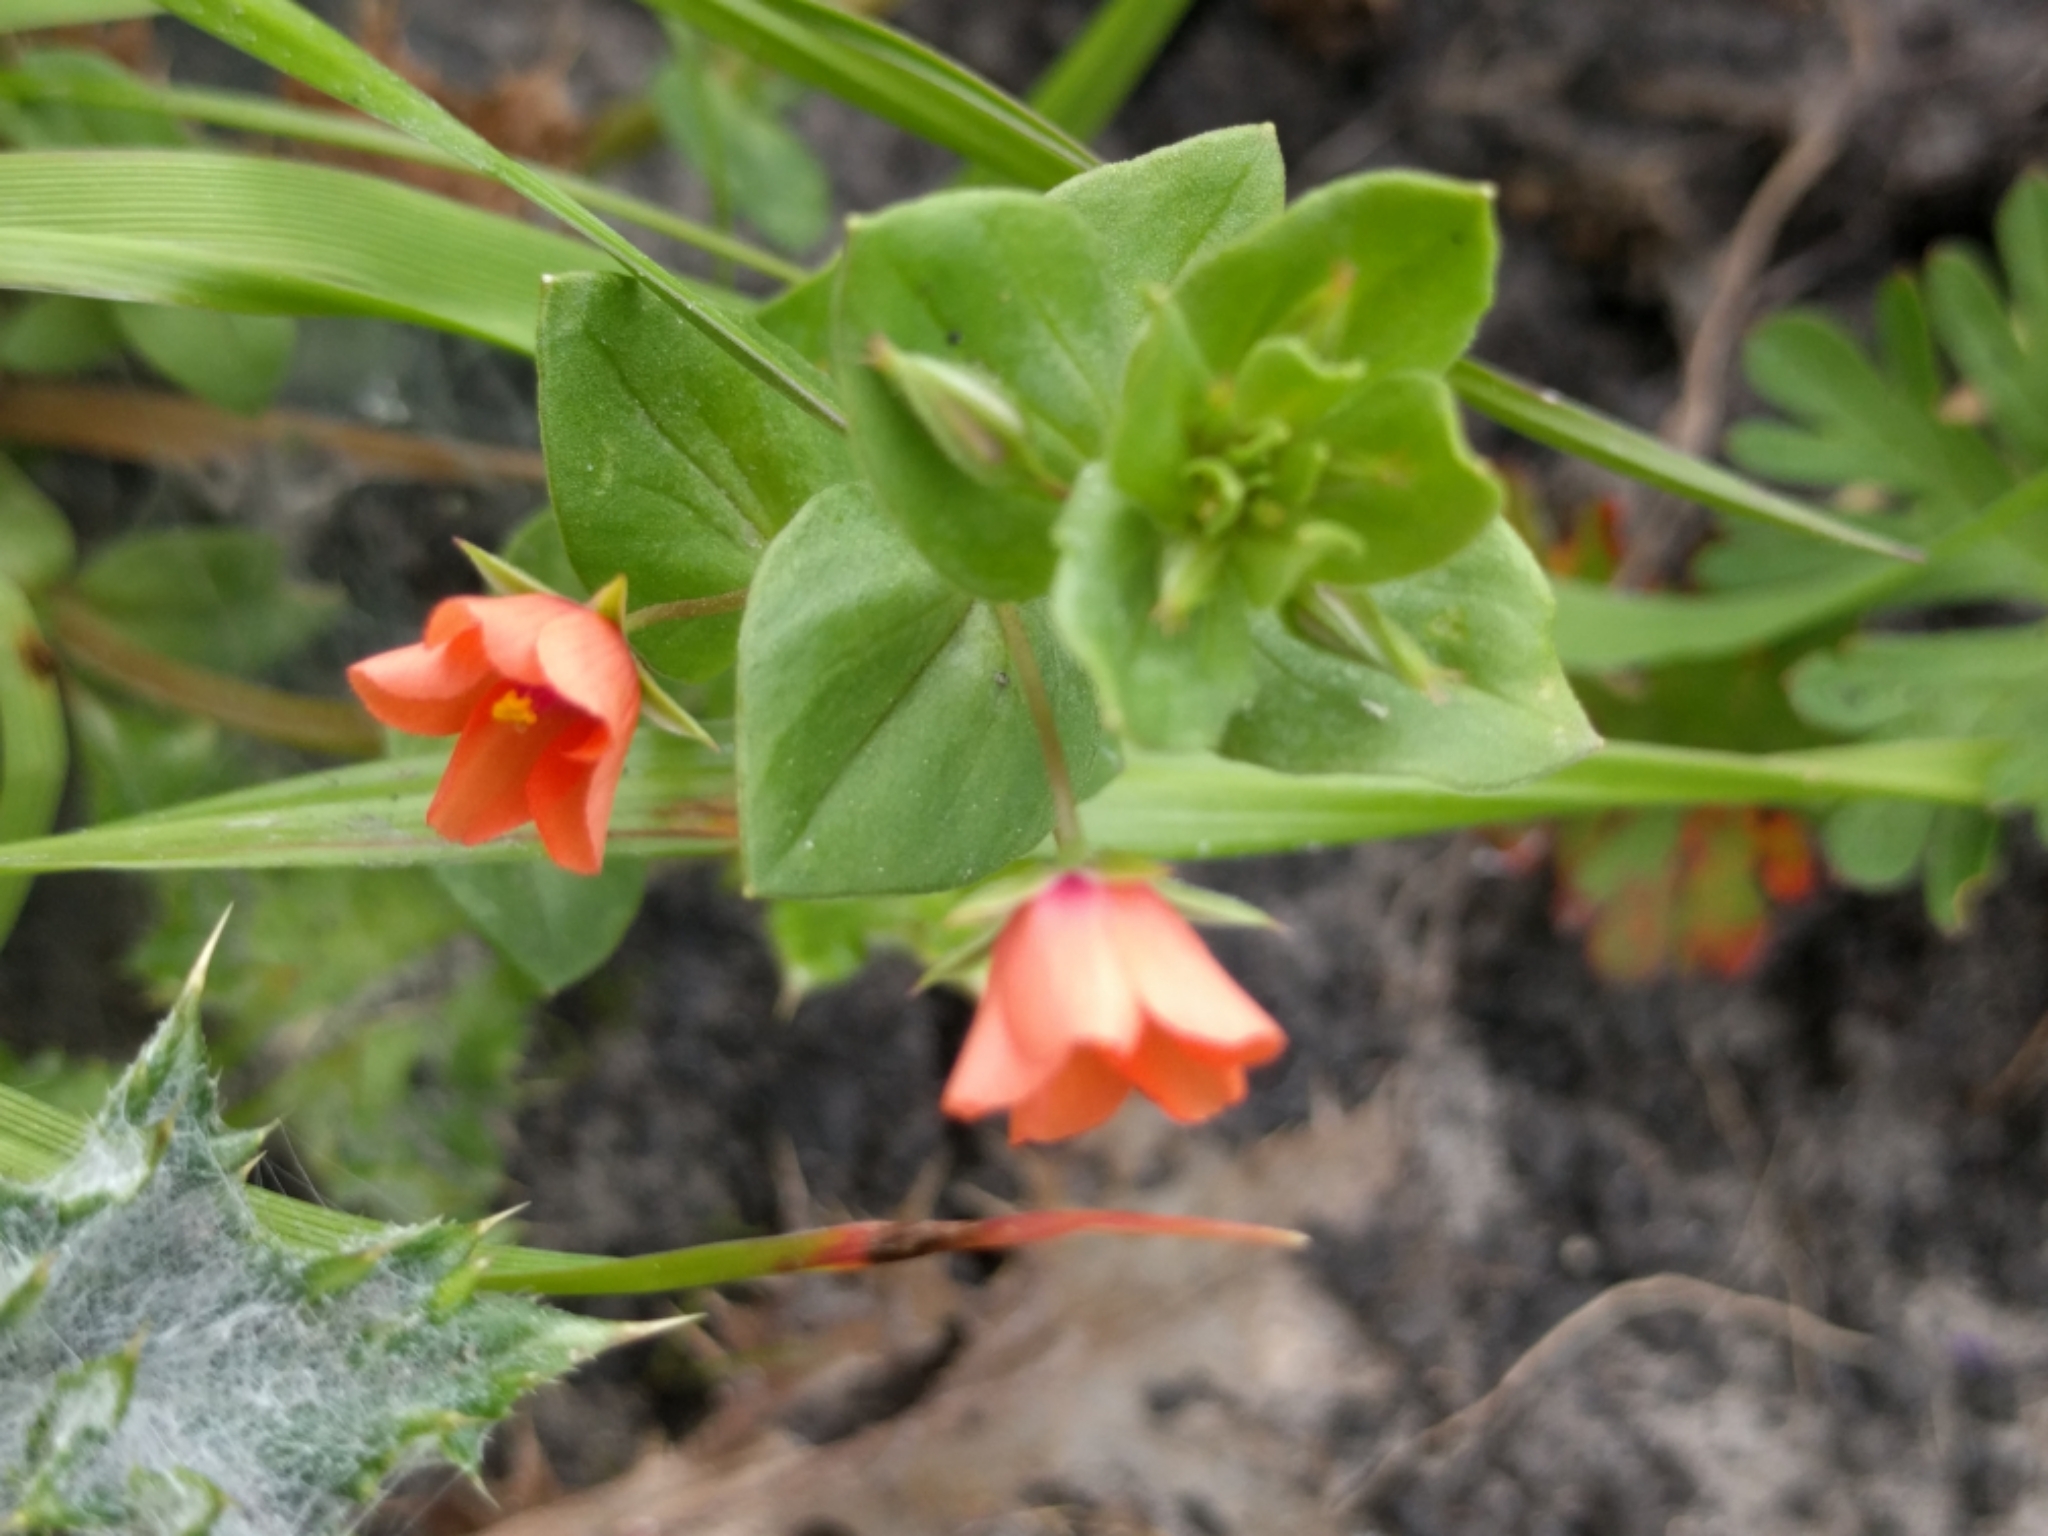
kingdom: Plantae
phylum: Tracheophyta
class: Magnoliopsida
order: Ericales
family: Primulaceae
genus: Lysimachia
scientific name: Lysimachia arvensis
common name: Scarlet pimpernel
